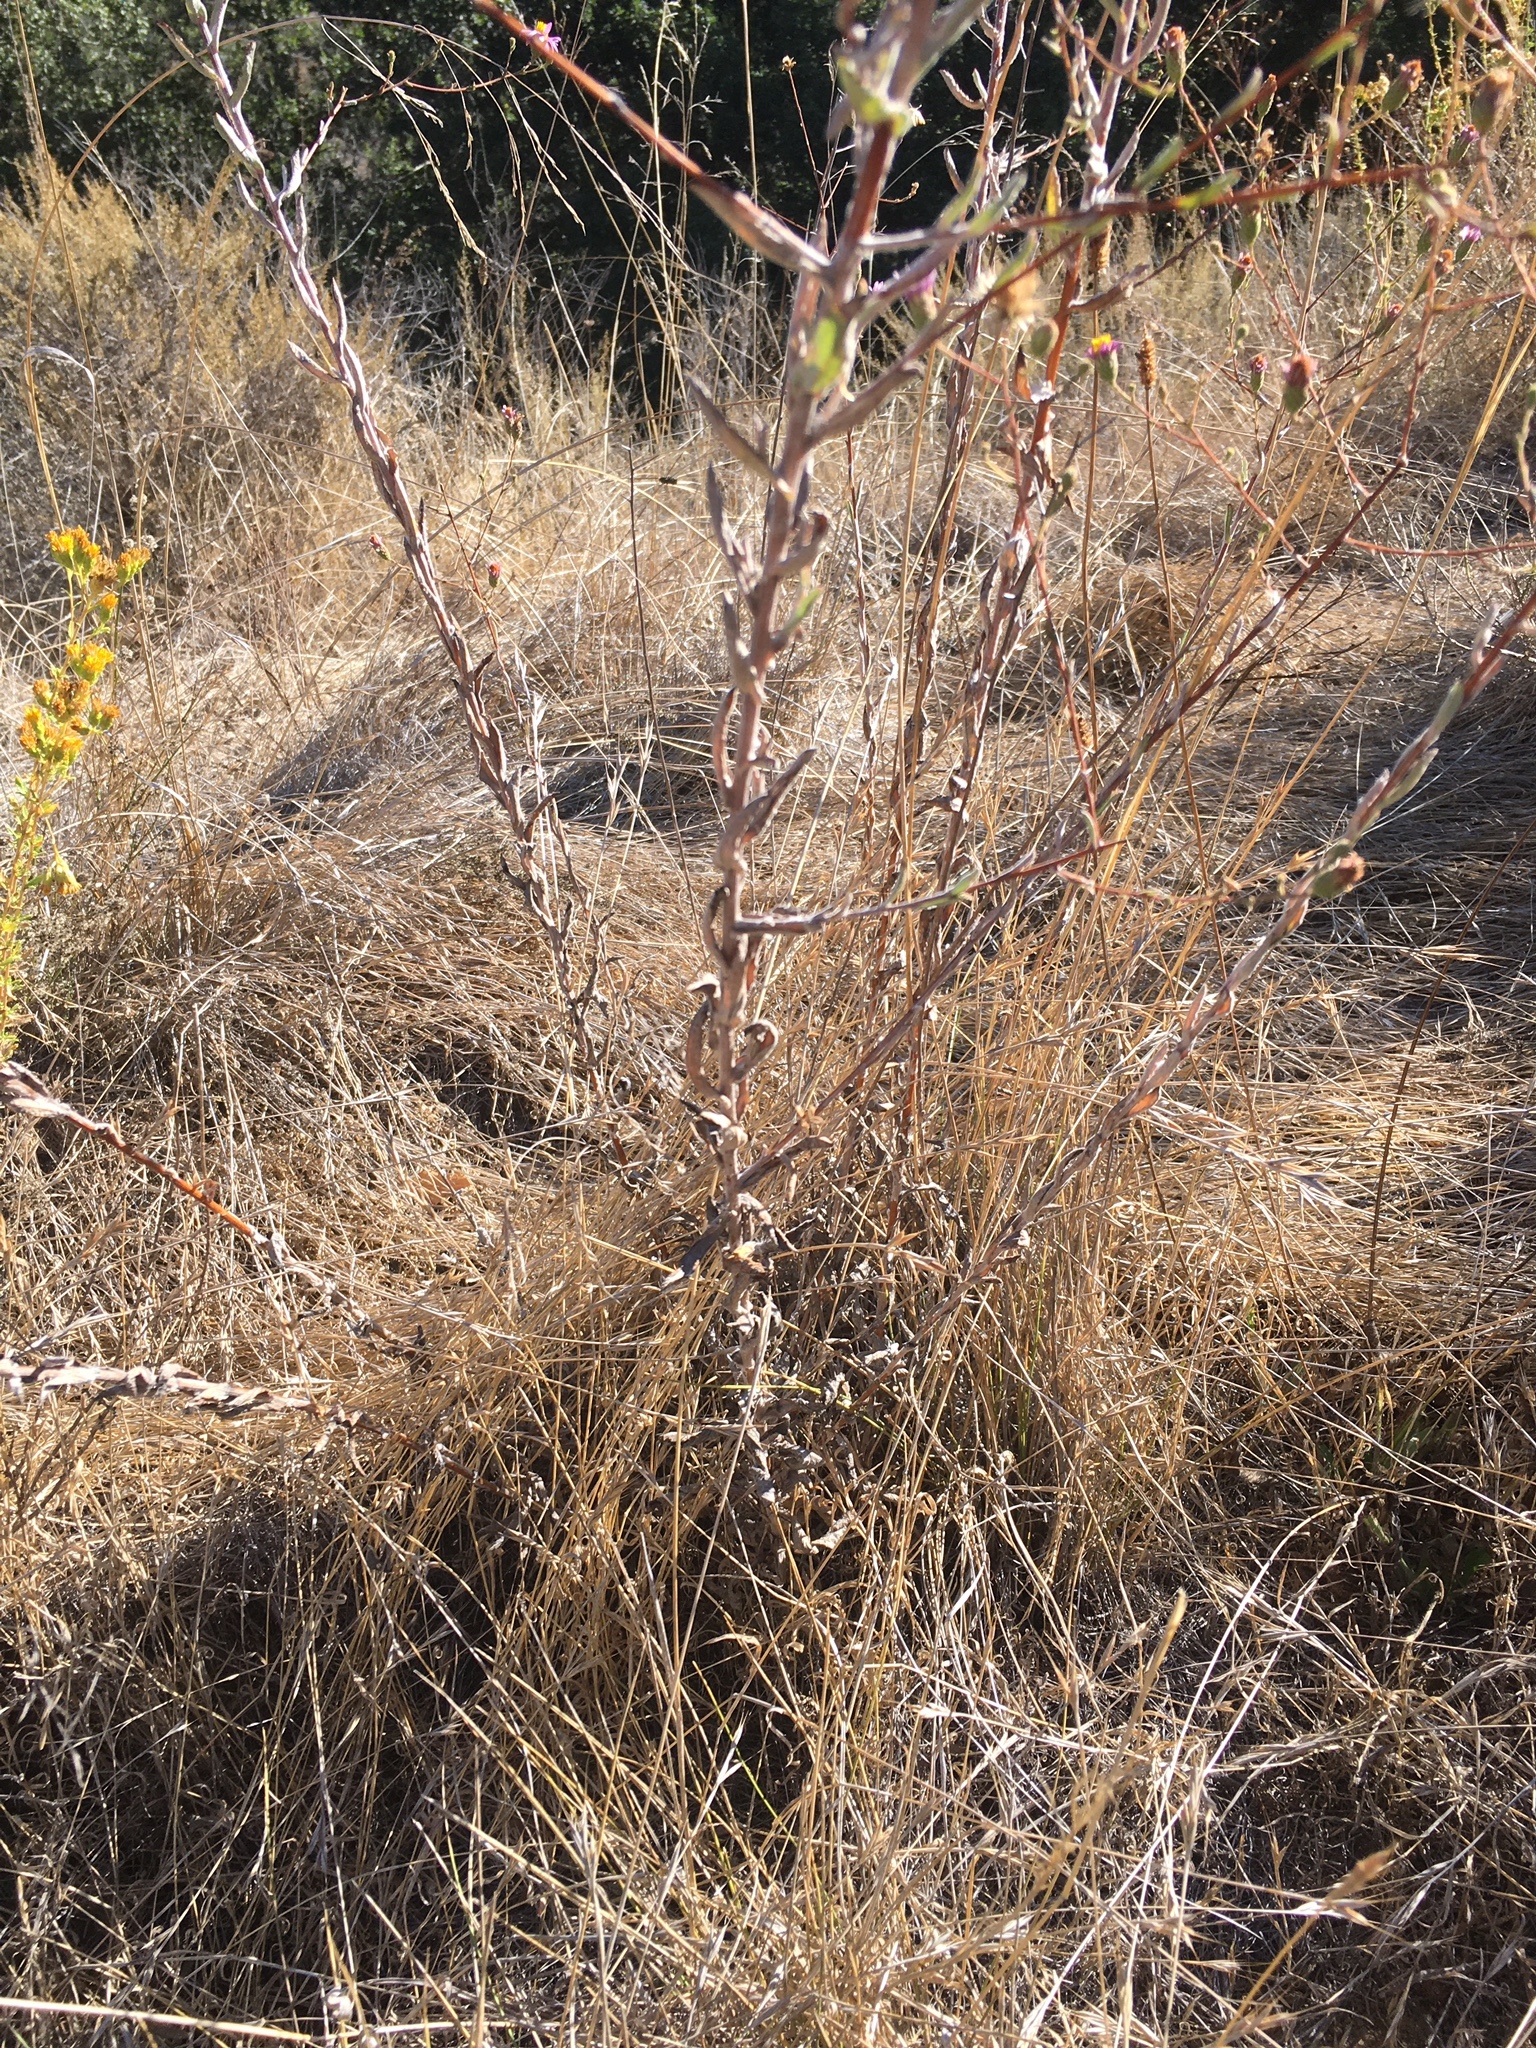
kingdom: Plantae
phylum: Tracheophyta
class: Magnoliopsida
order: Asterales
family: Asteraceae
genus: Corethrogyne
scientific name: Corethrogyne filaginifolia
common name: Sand-aster
